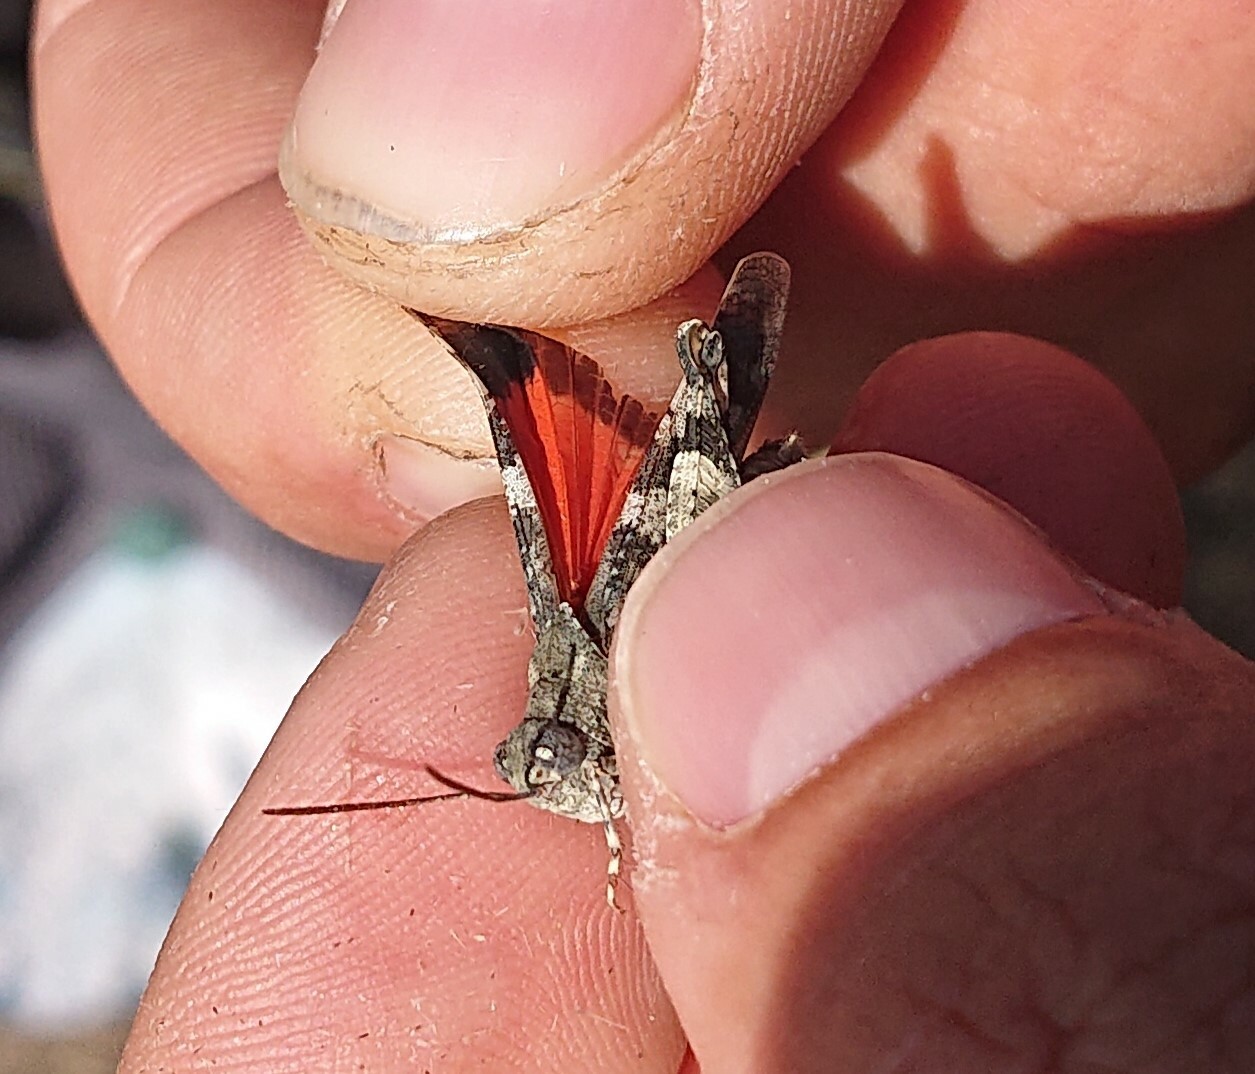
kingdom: Animalia
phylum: Arthropoda
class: Insecta
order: Orthoptera
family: Acrididae
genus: Oedipoda
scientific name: Oedipoda germanica
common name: Red band-winged grasshopper
